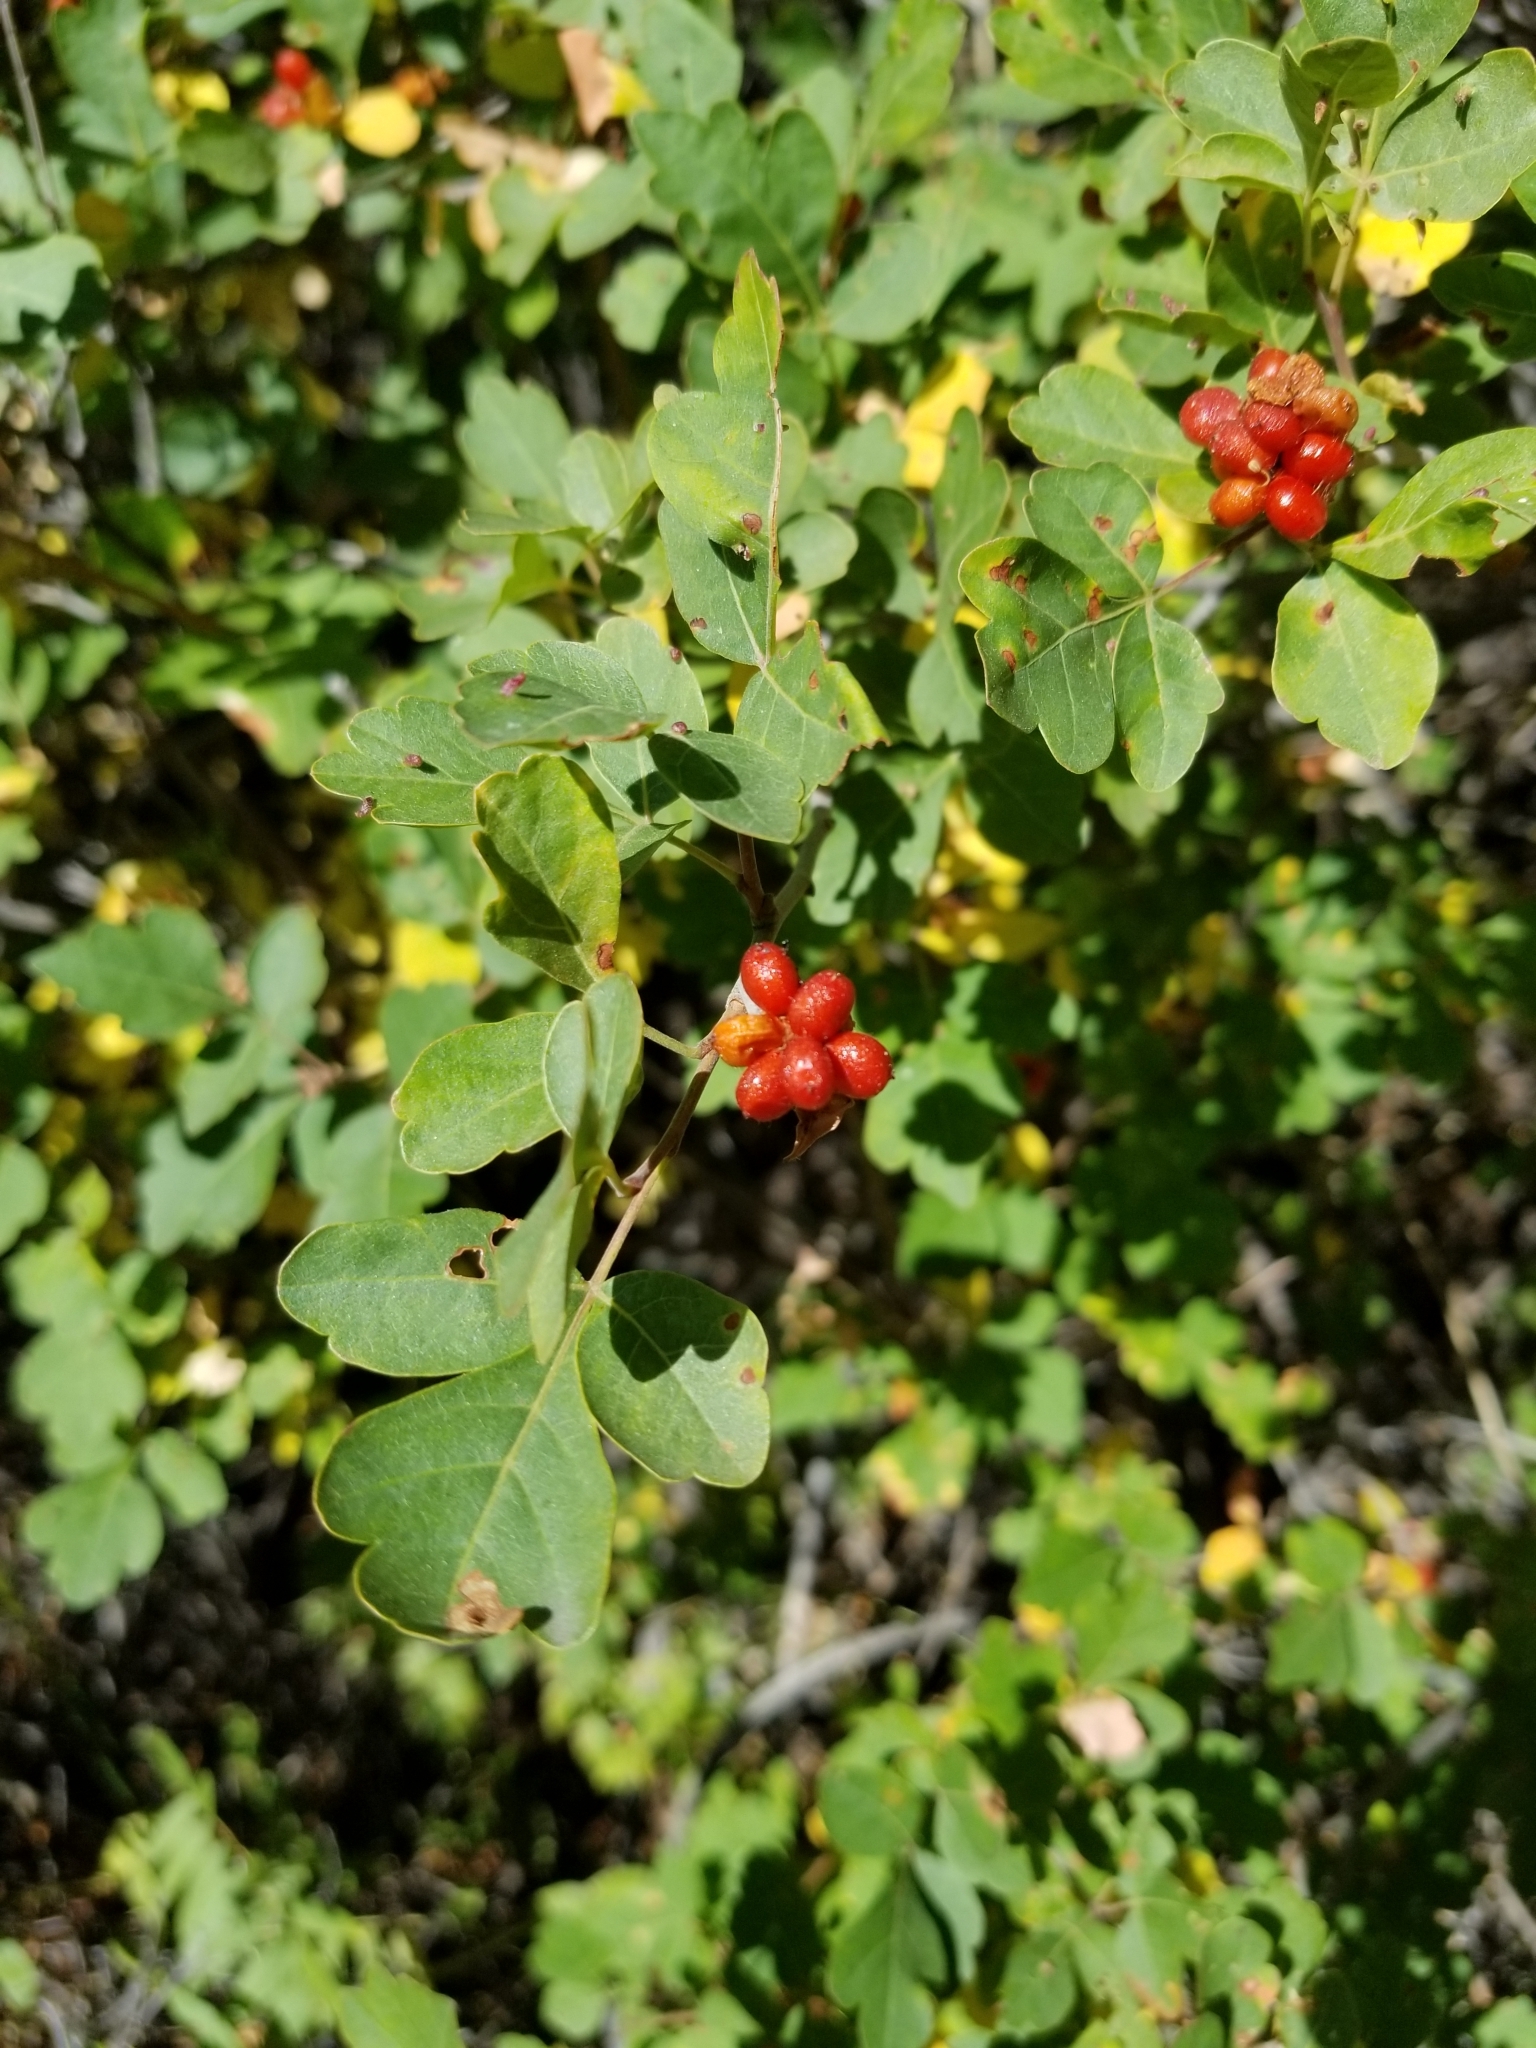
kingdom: Plantae
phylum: Tracheophyta
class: Magnoliopsida
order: Sapindales
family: Anacardiaceae
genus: Rhus
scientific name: Rhus aromatica
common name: Aromatic sumac
